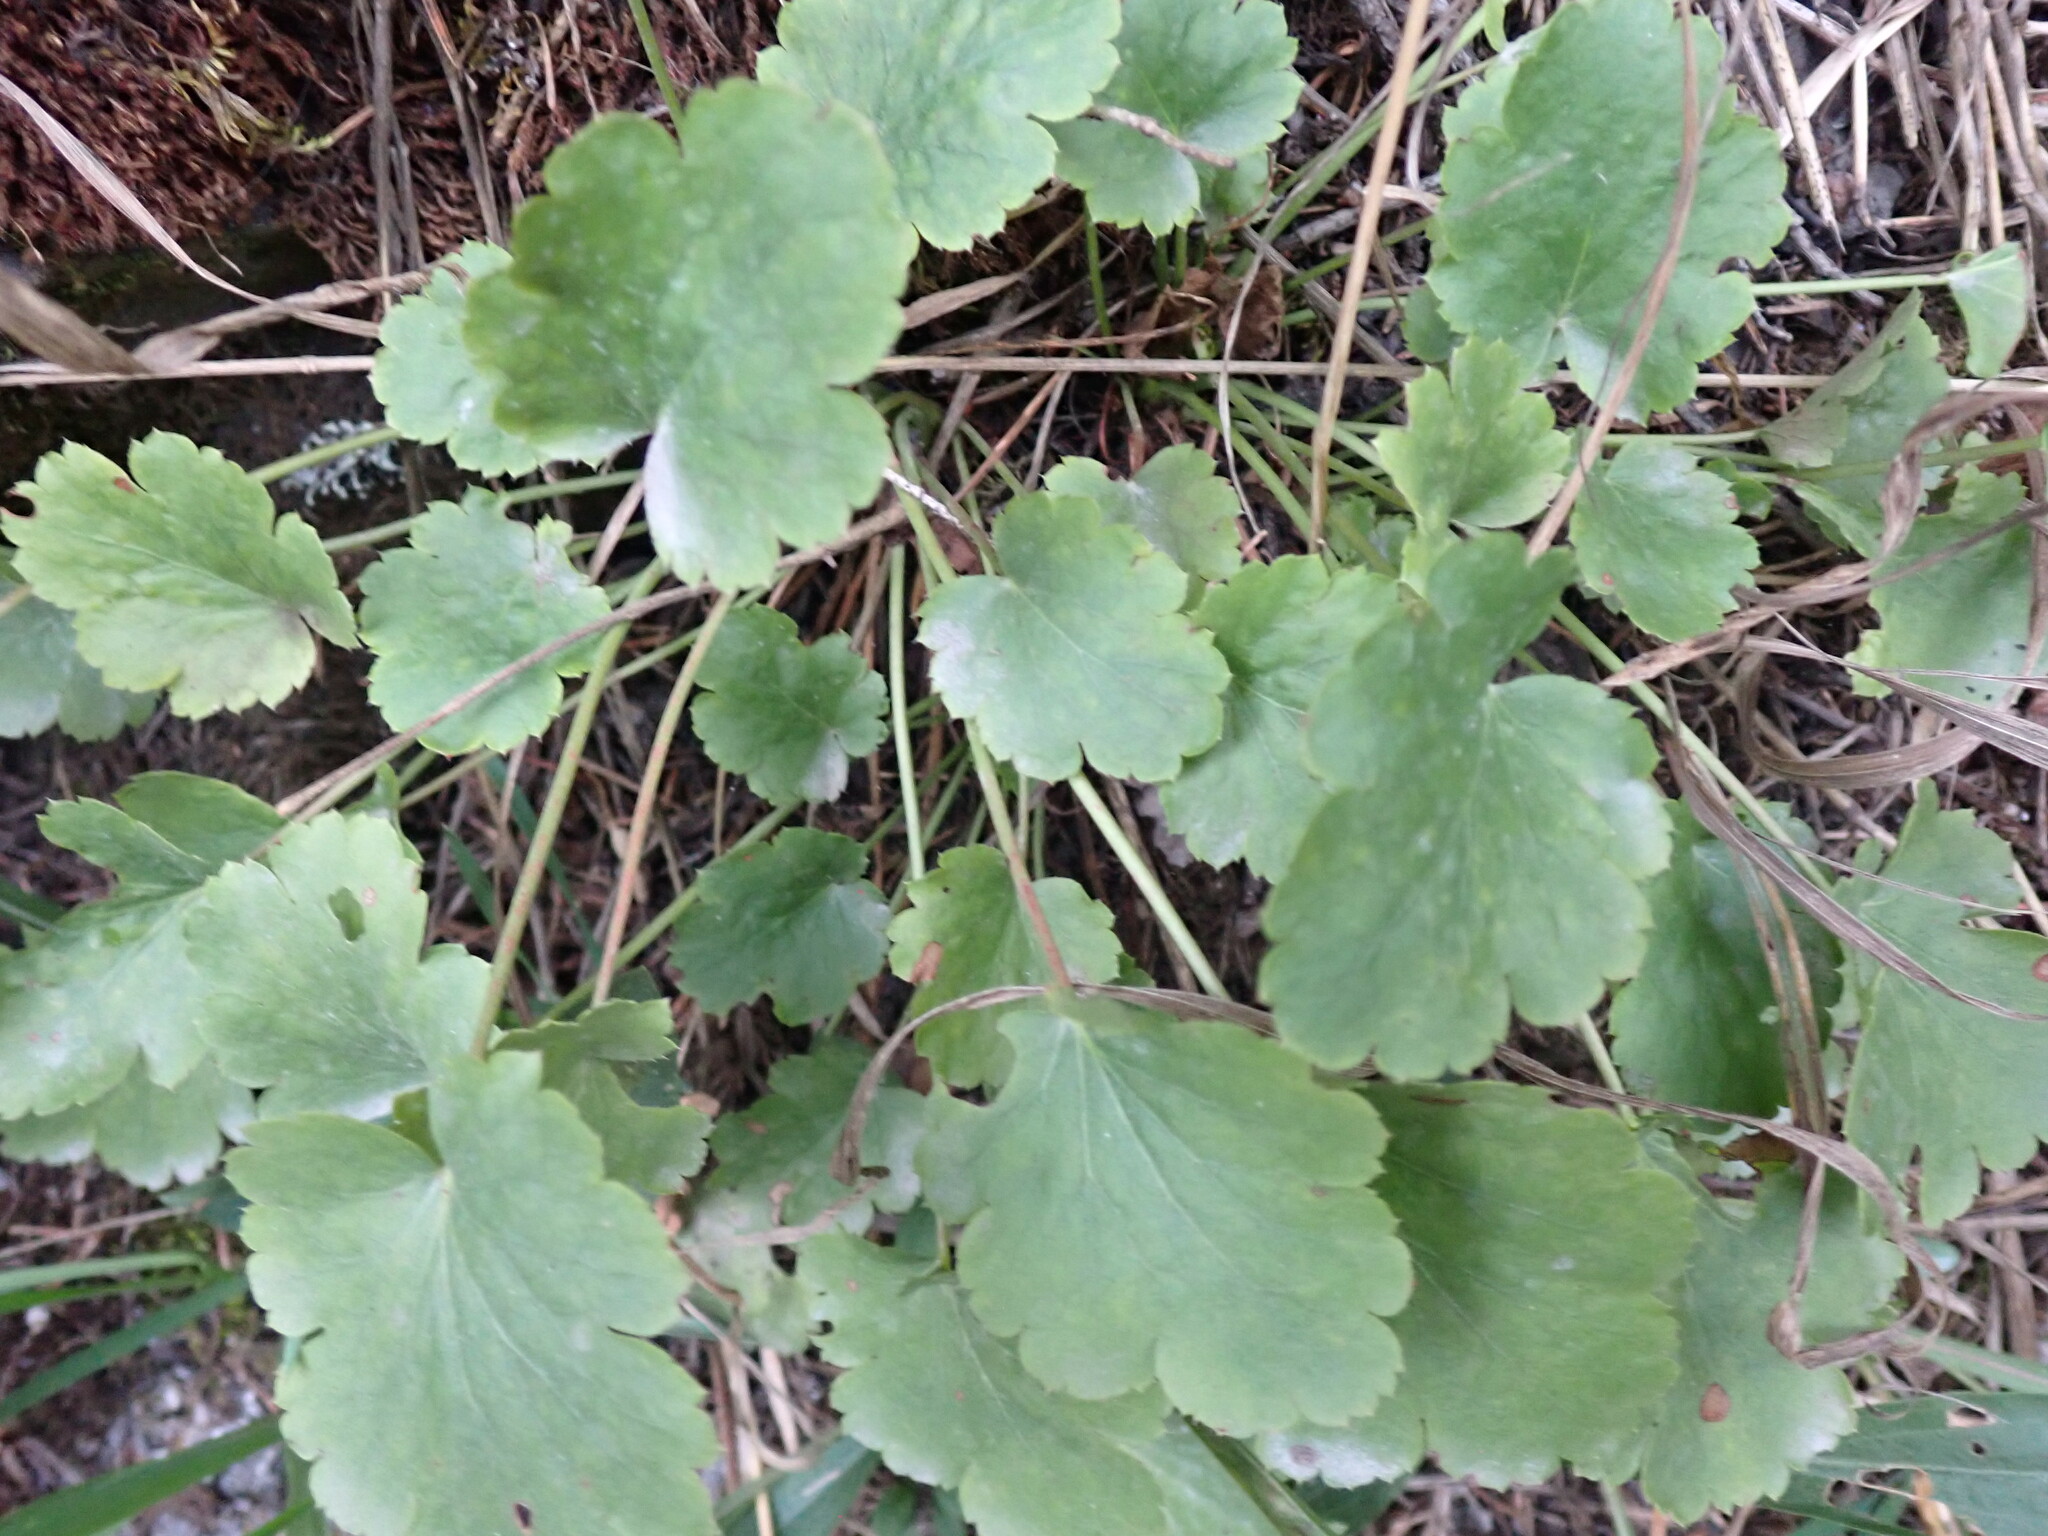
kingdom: Plantae
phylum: Tracheophyta
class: Magnoliopsida
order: Saxifragales
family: Saxifragaceae
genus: Heuchera
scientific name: Heuchera cylindrica
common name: Mat alumroot
